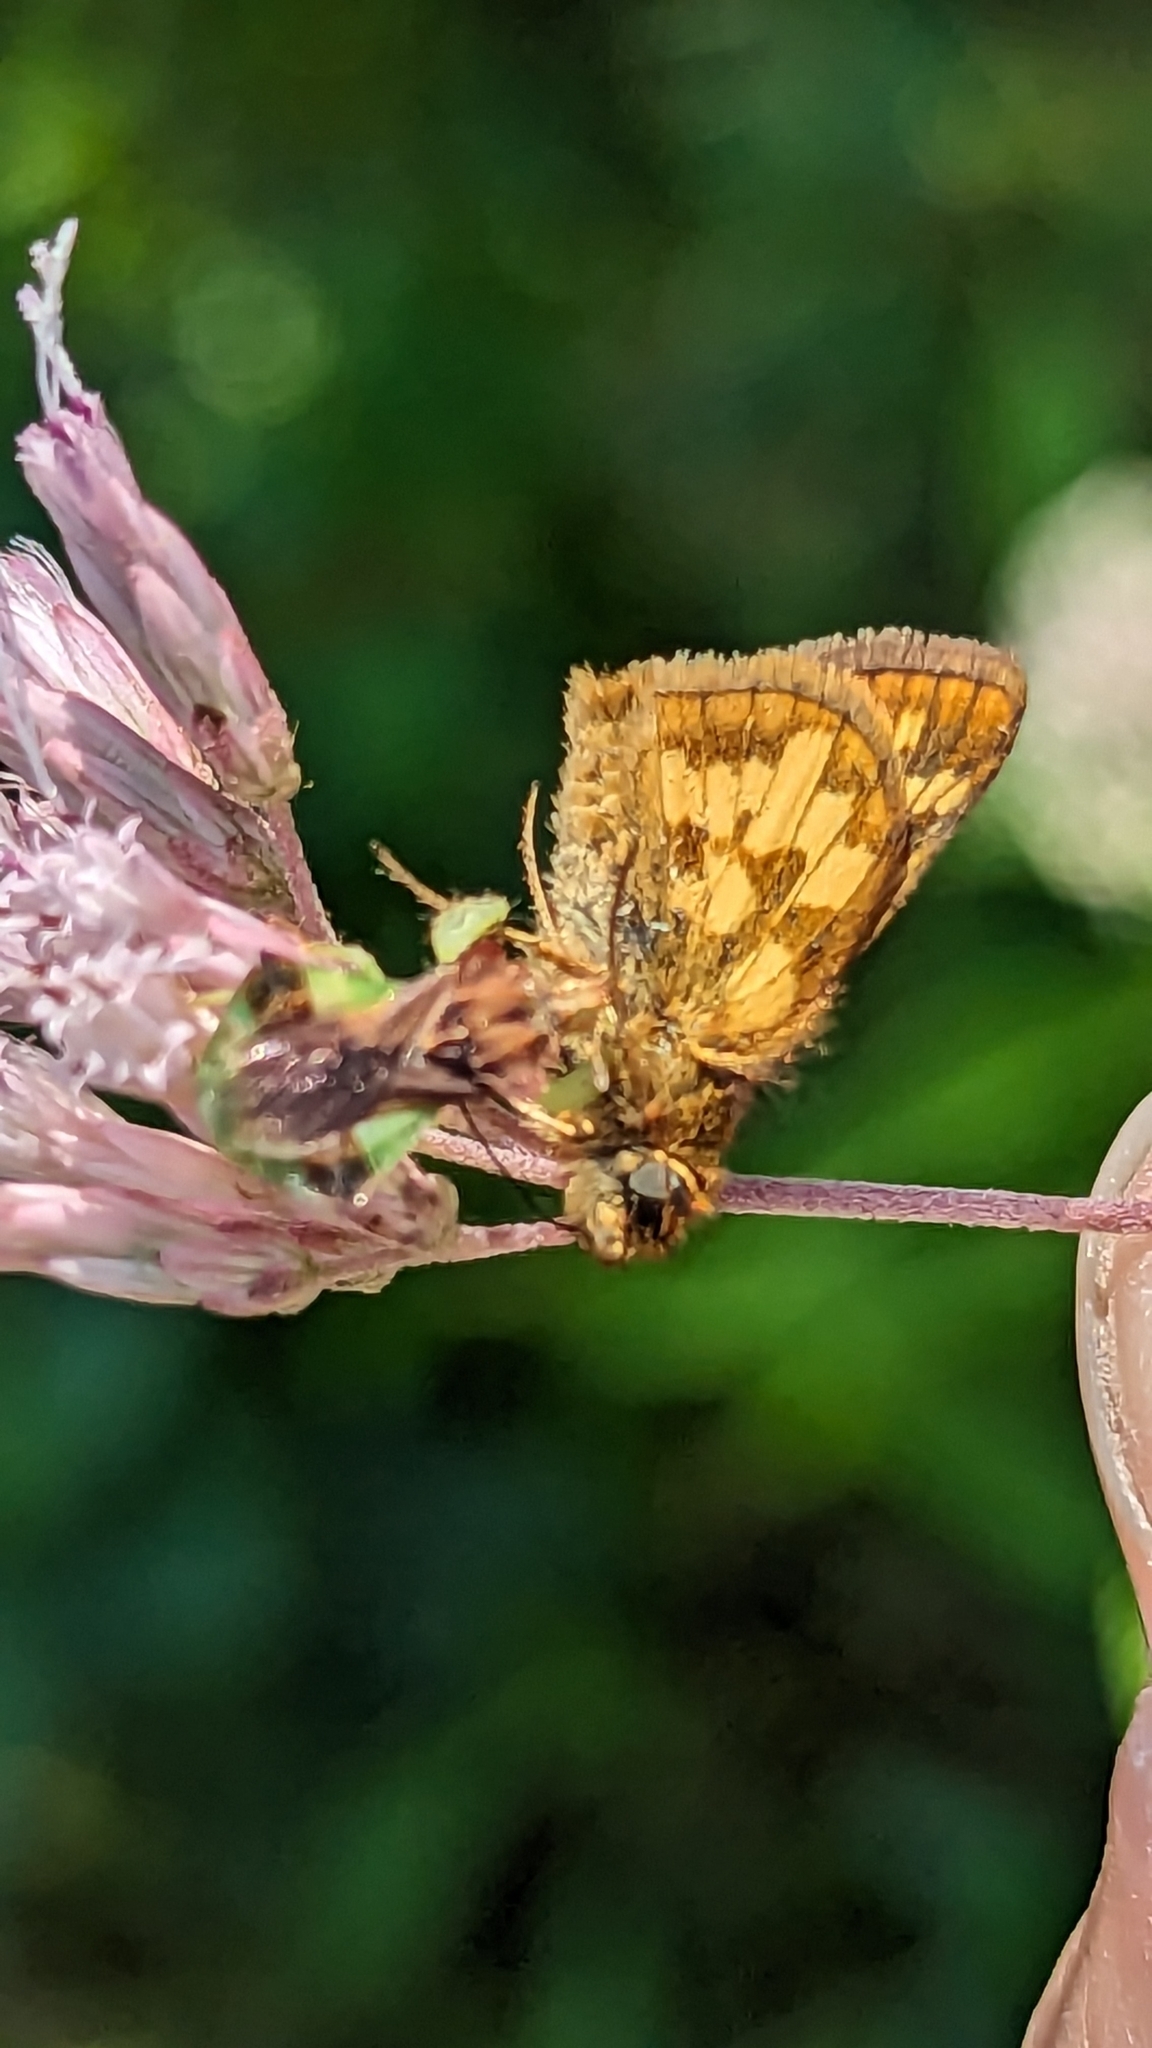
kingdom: Animalia
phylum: Arthropoda
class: Insecta
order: Lepidoptera
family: Hesperiidae
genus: Polites
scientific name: Polites coras
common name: Peck's skipper
